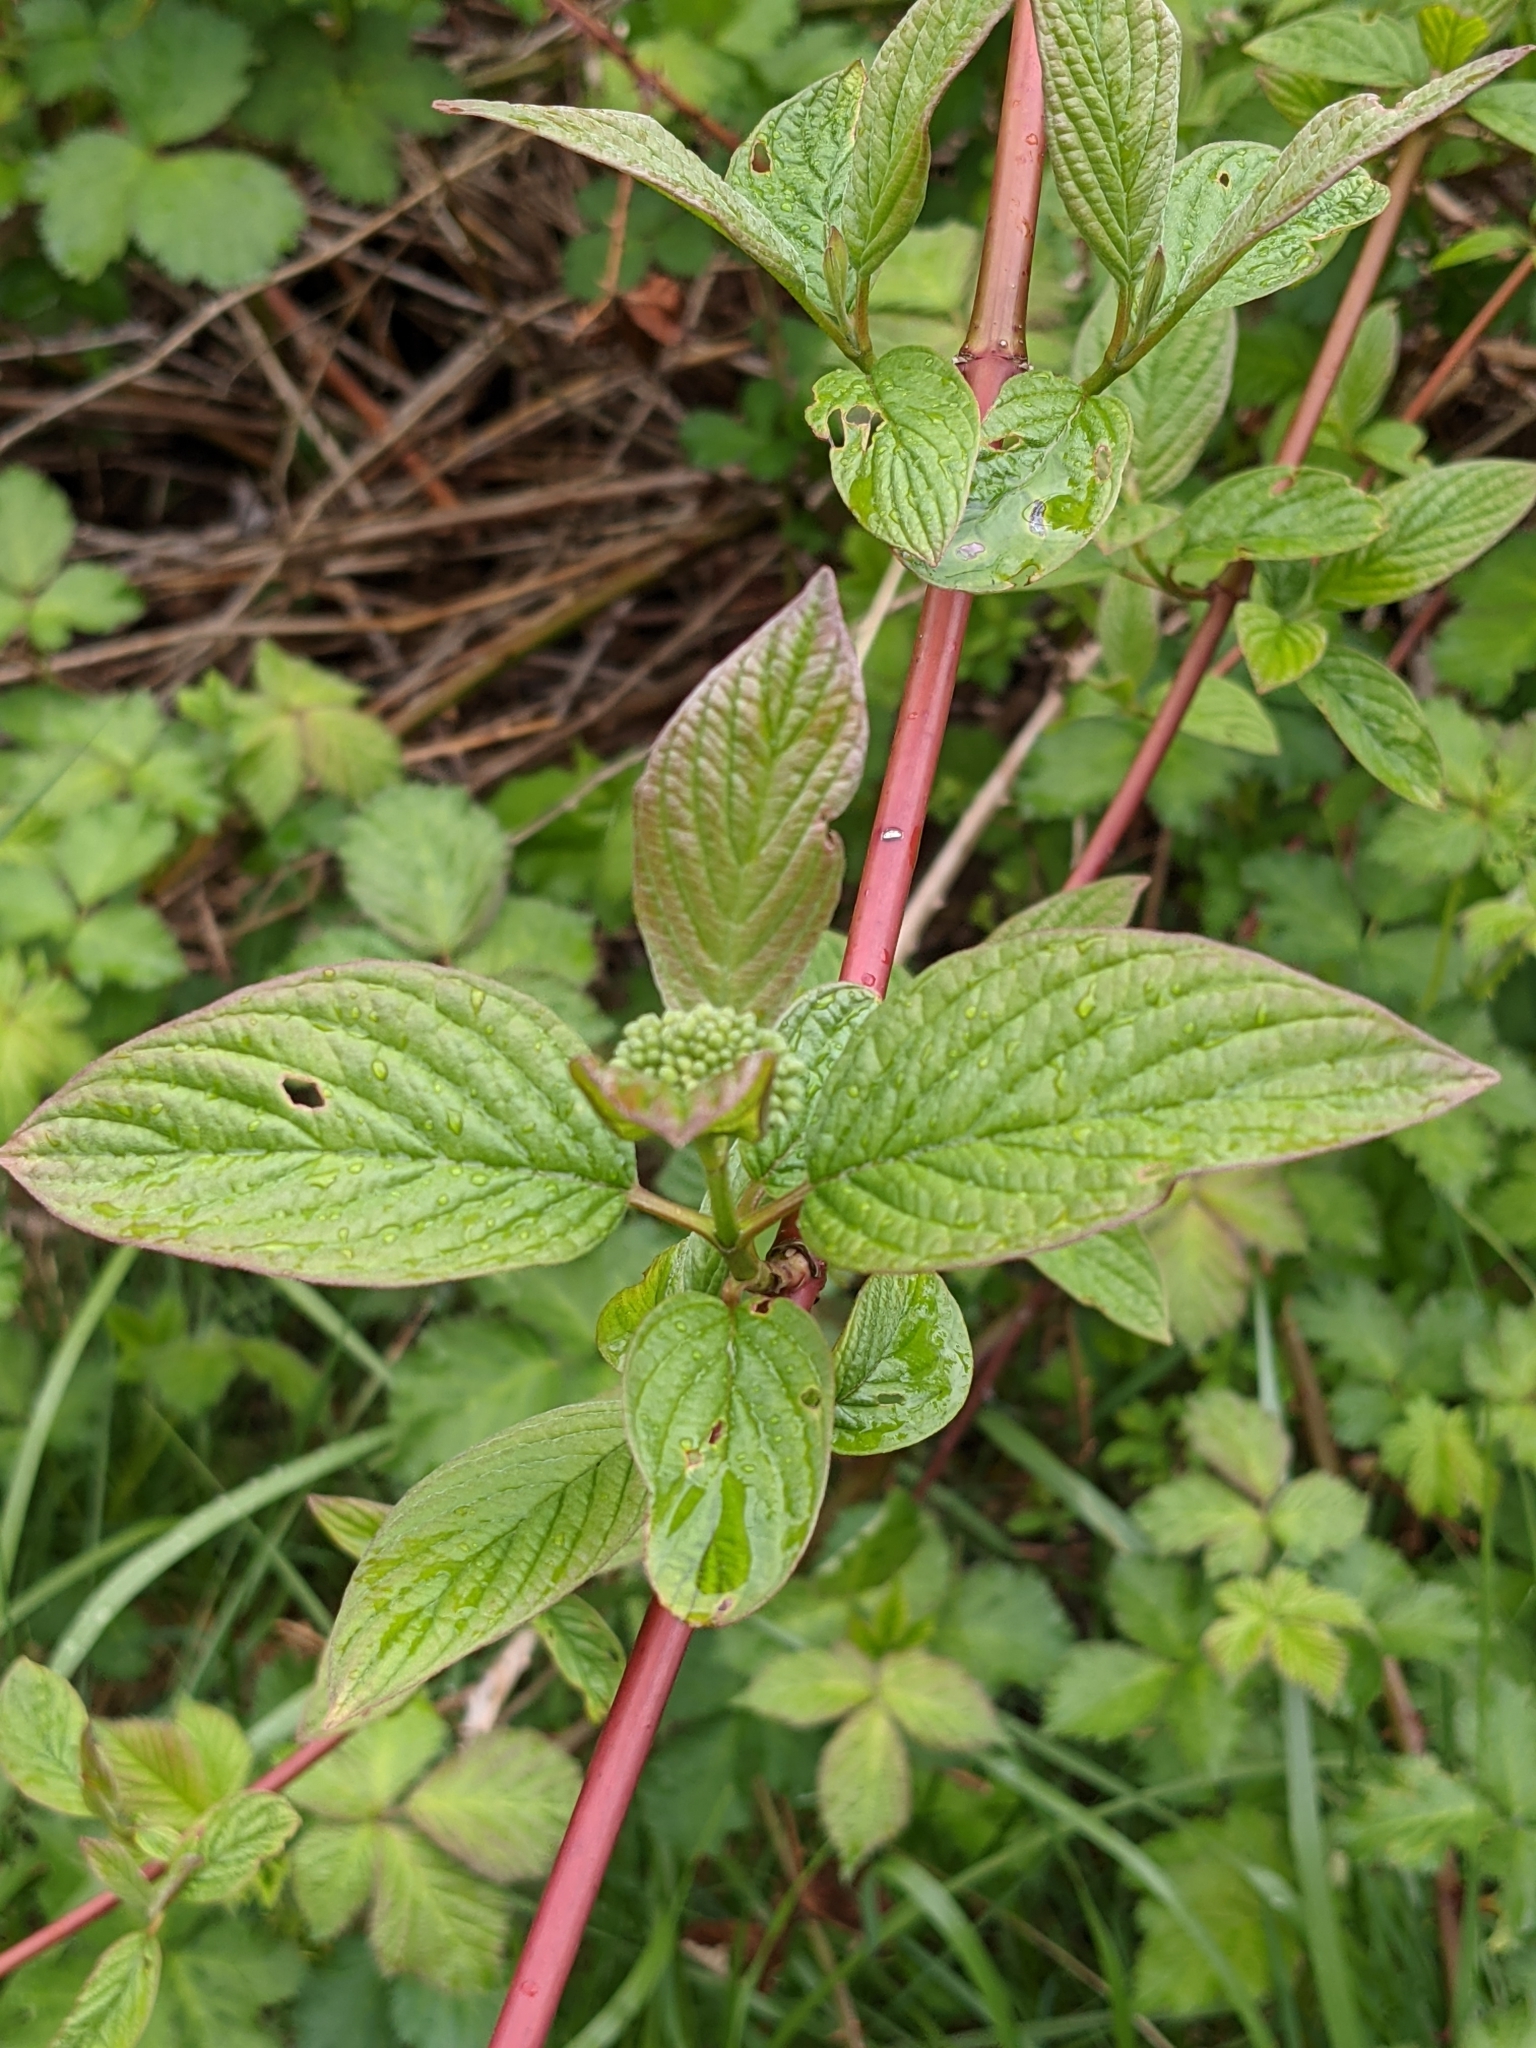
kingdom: Plantae
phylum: Tracheophyta
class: Magnoliopsida
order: Cornales
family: Cornaceae
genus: Cornus
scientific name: Cornus sericea
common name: Red-osier dogwood
